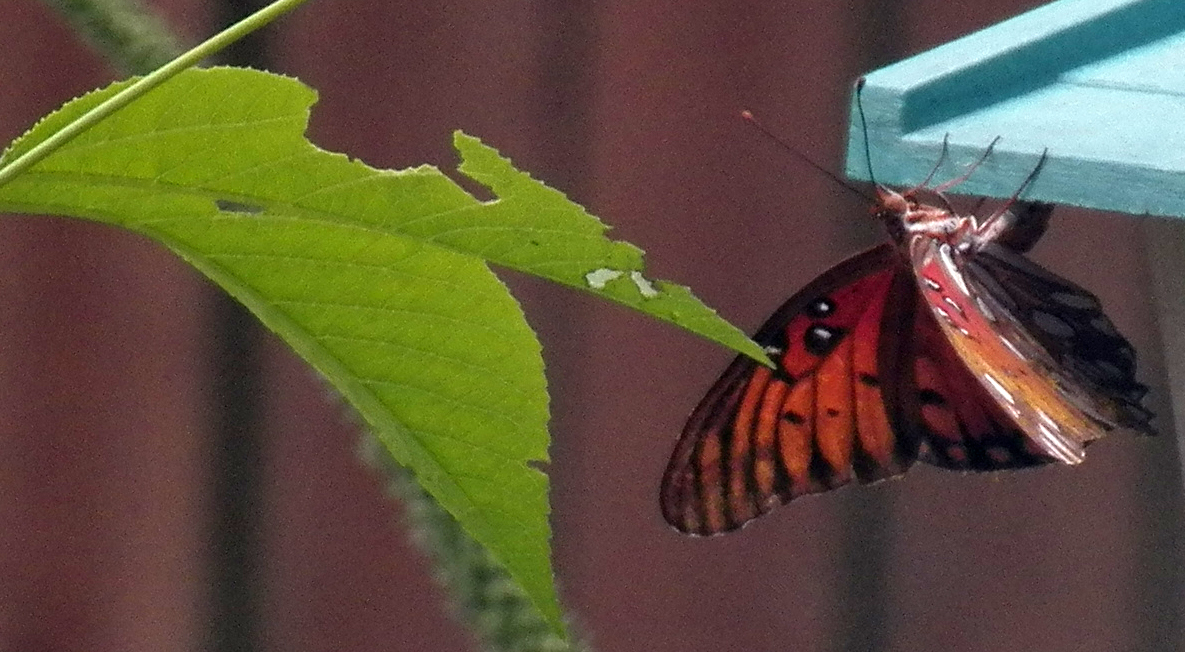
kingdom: Animalia
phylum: Arthropoda
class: Insecta
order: Lepidoptera
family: Nymphalidae
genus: Dione
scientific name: Dione vanillae
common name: Gulf fritillary
